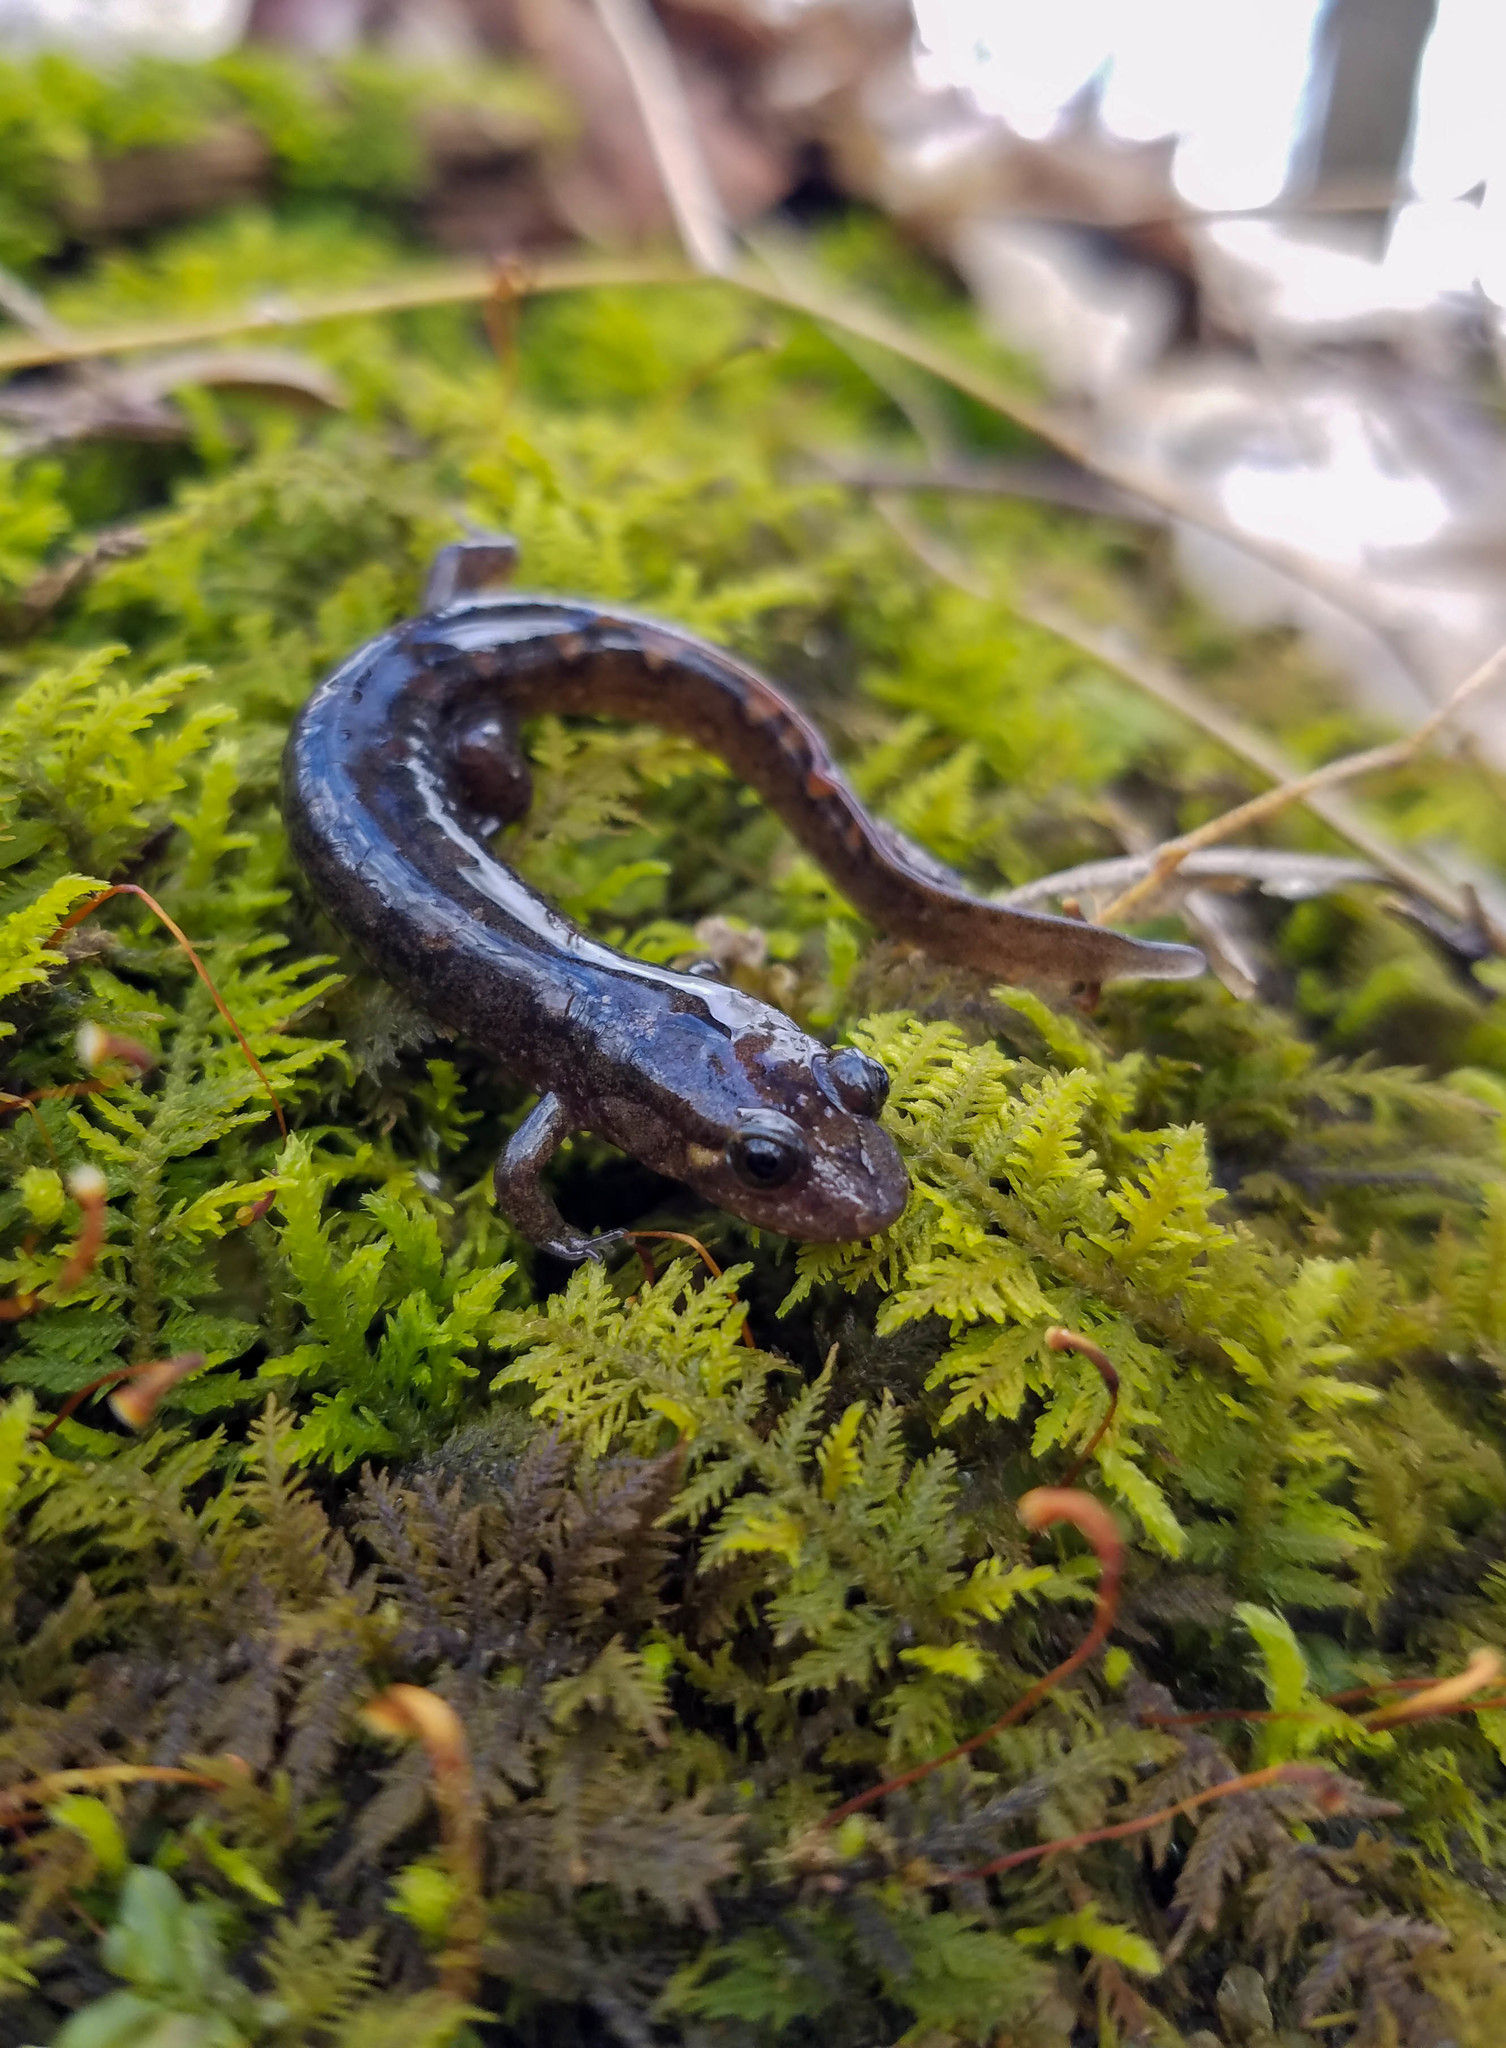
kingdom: Animalia
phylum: Chordata
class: Amphibia
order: Caudata
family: Plethodontidae
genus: Desmognathus
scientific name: Desmognathus monticola
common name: Seal salamander
